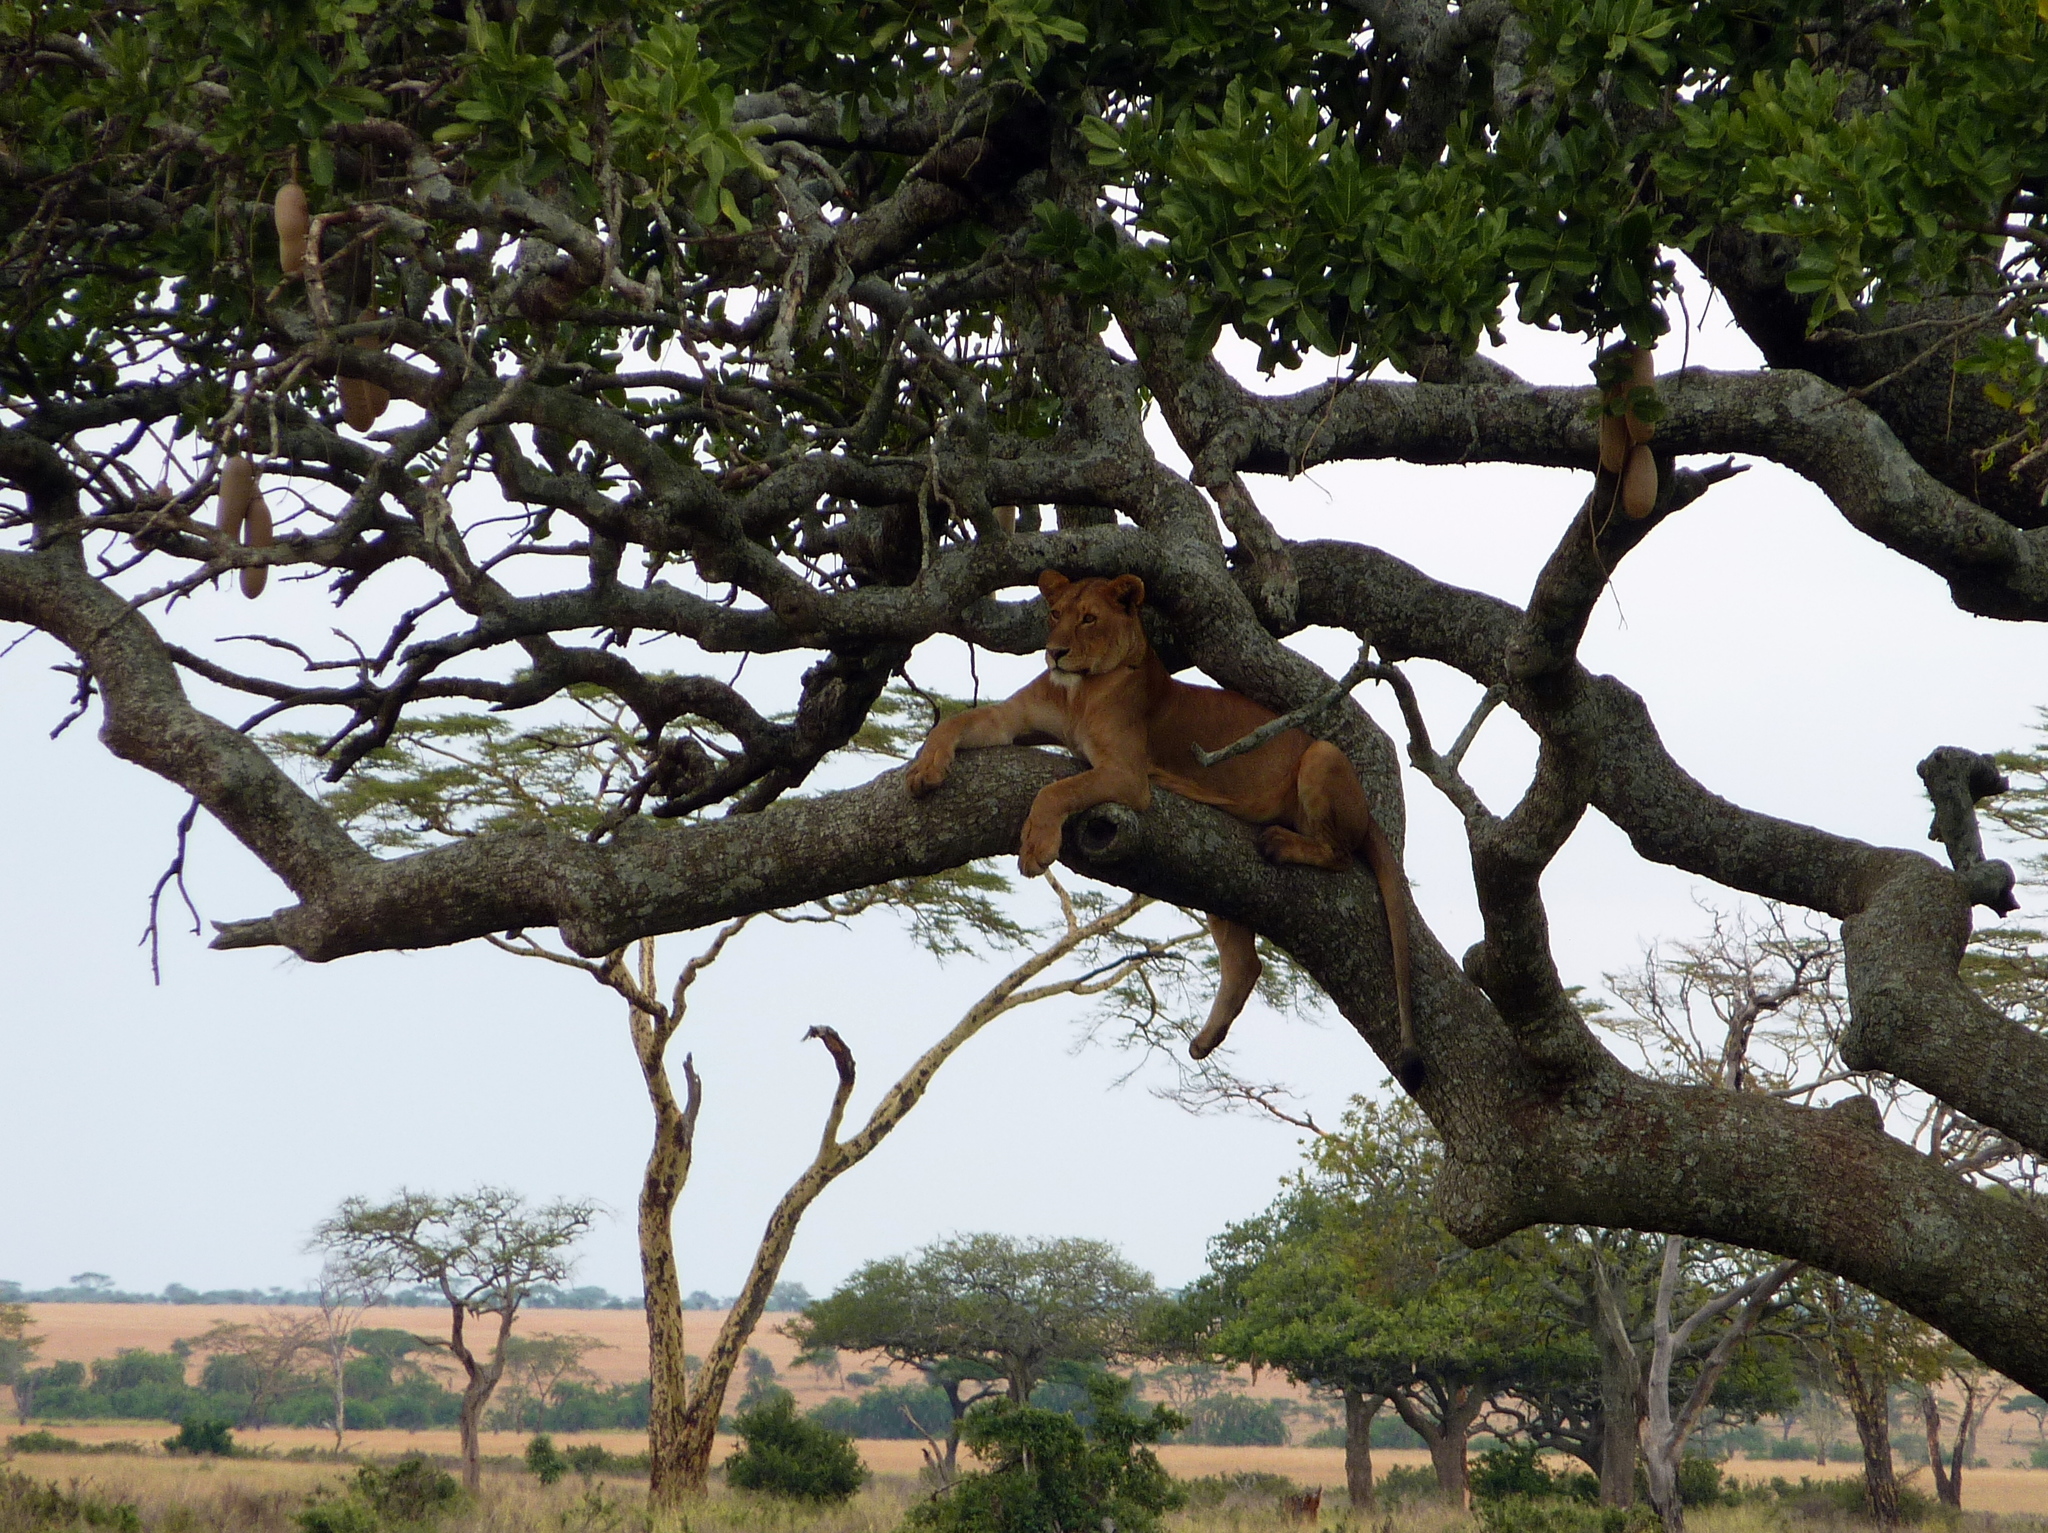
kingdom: Animalia
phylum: Chordata
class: Mammalia
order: Carnivora
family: Felidae
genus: Panthera
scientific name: Panthera leo
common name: Lion
